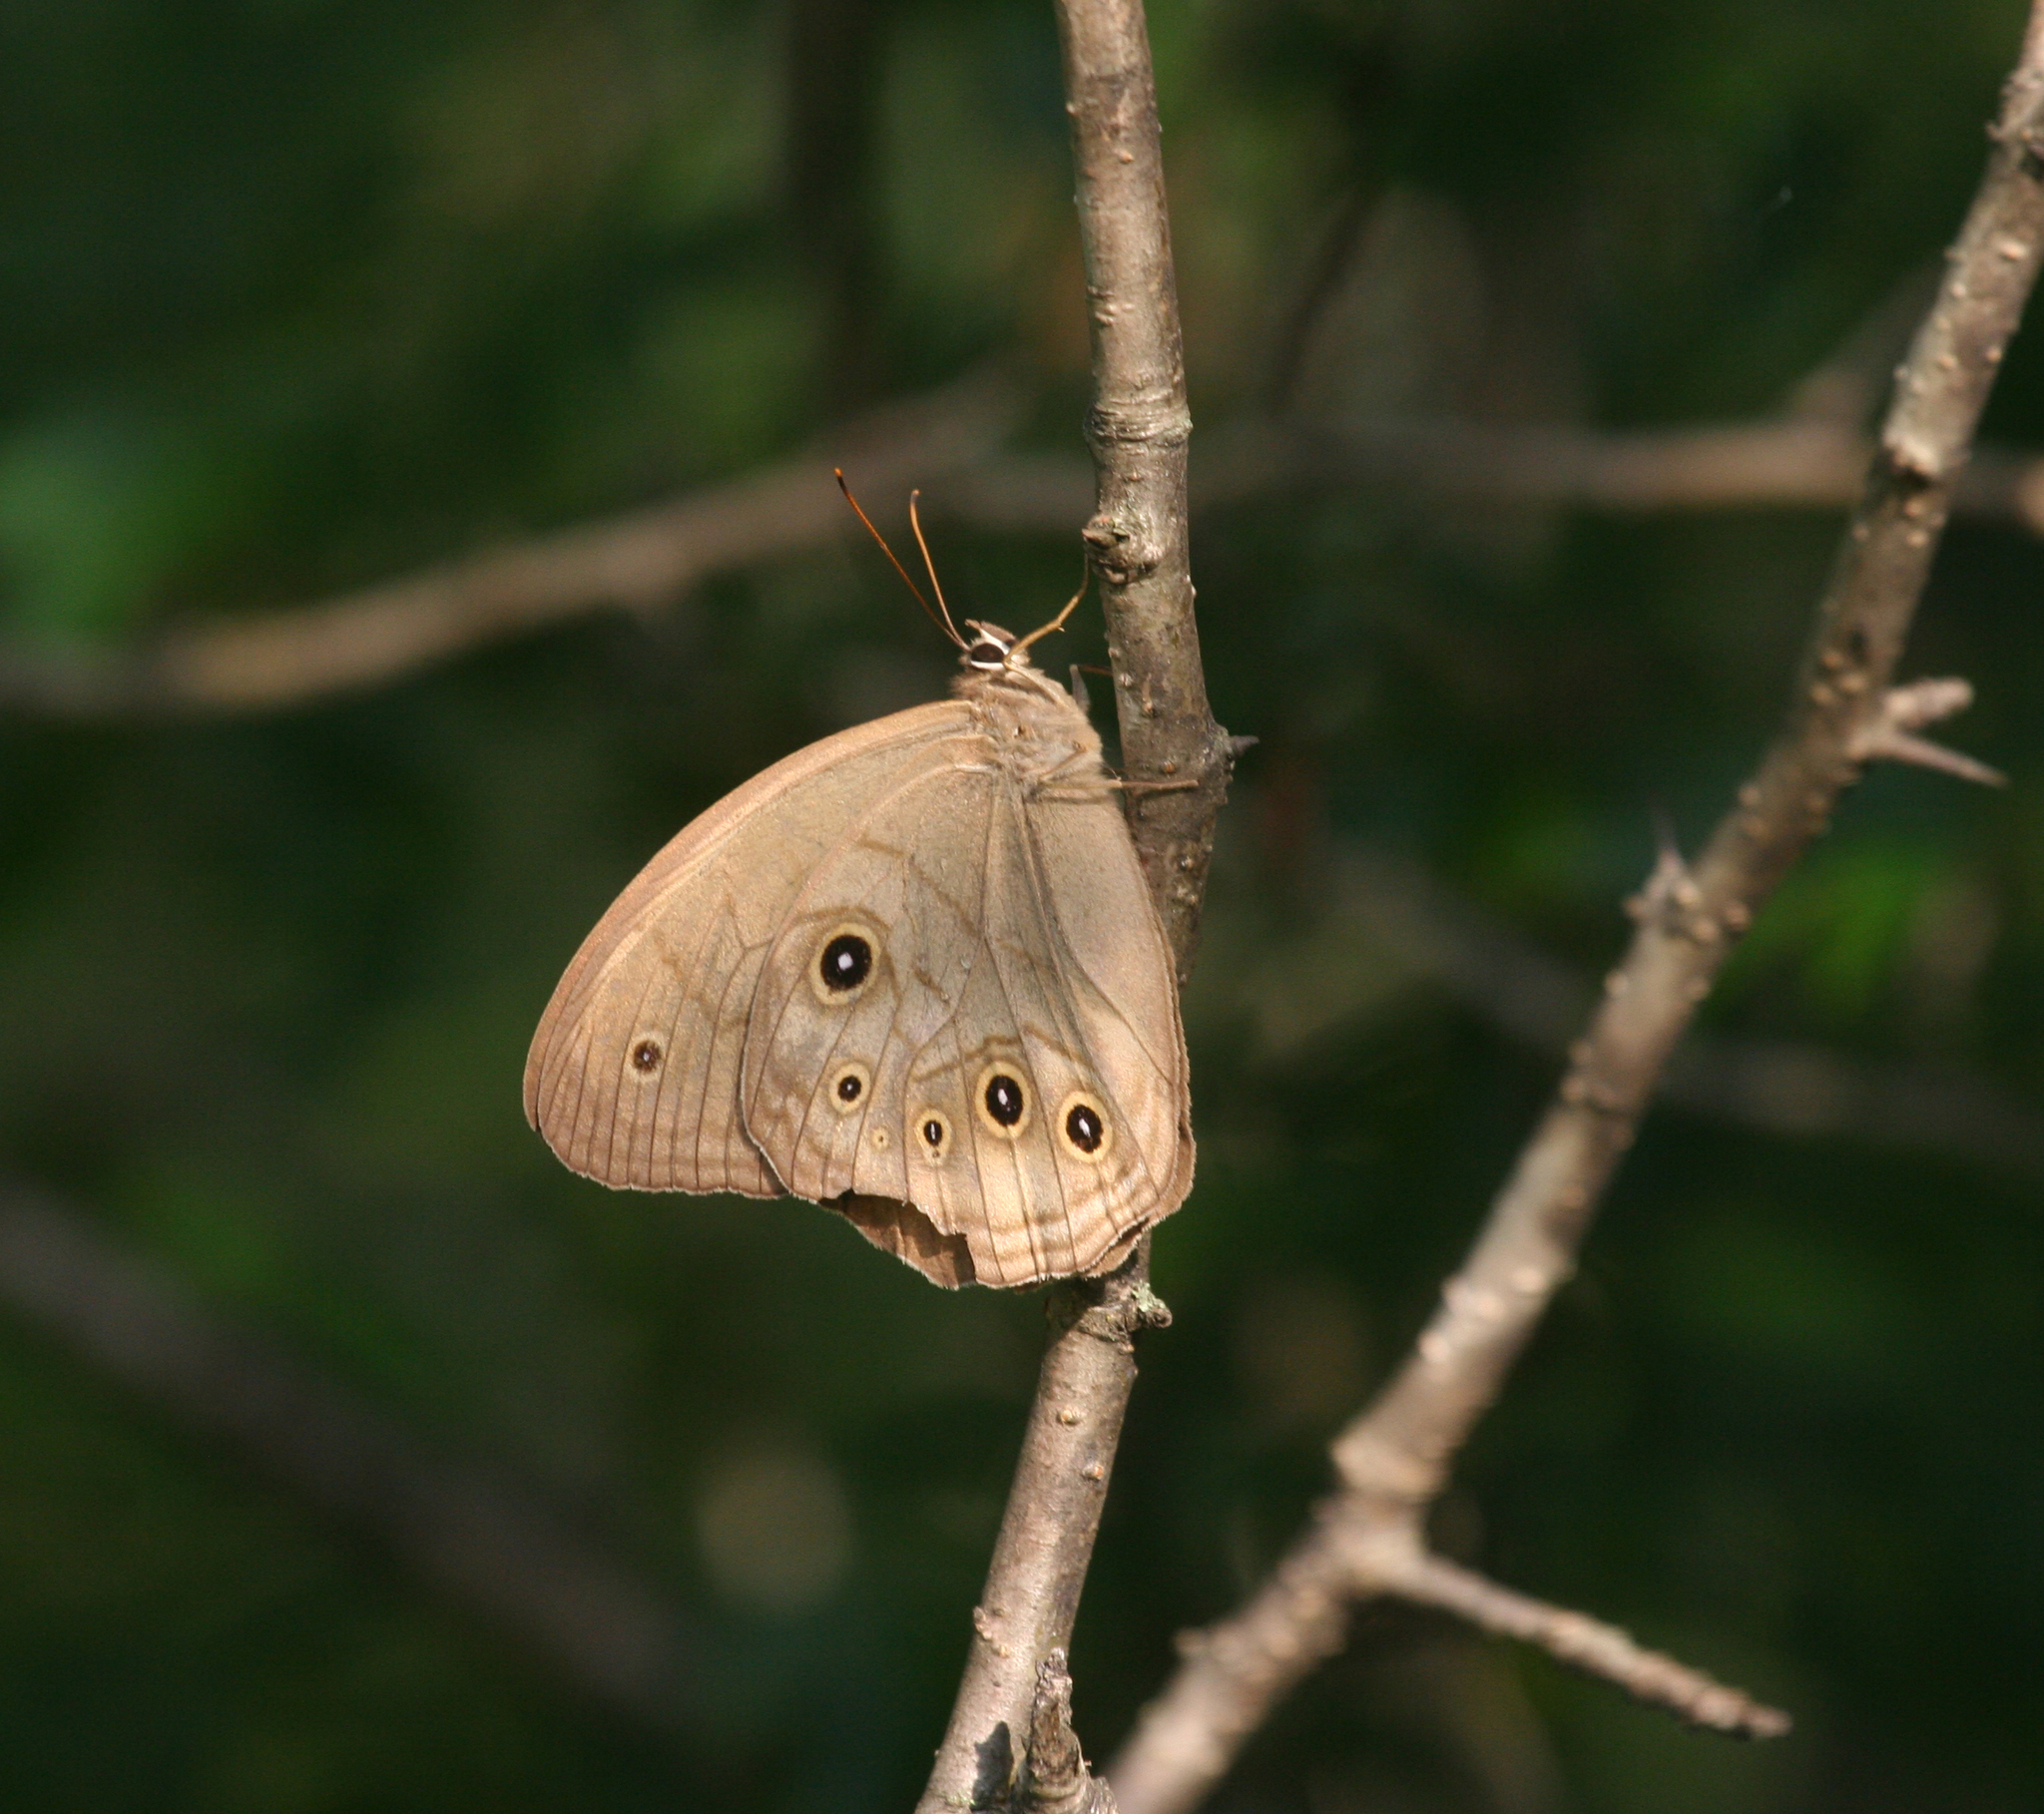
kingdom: Animalia
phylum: Arthropoda
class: Insecta
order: Lepidoptera
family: Nymphalidae
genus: Ninguta
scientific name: Ninguta schrenckii
